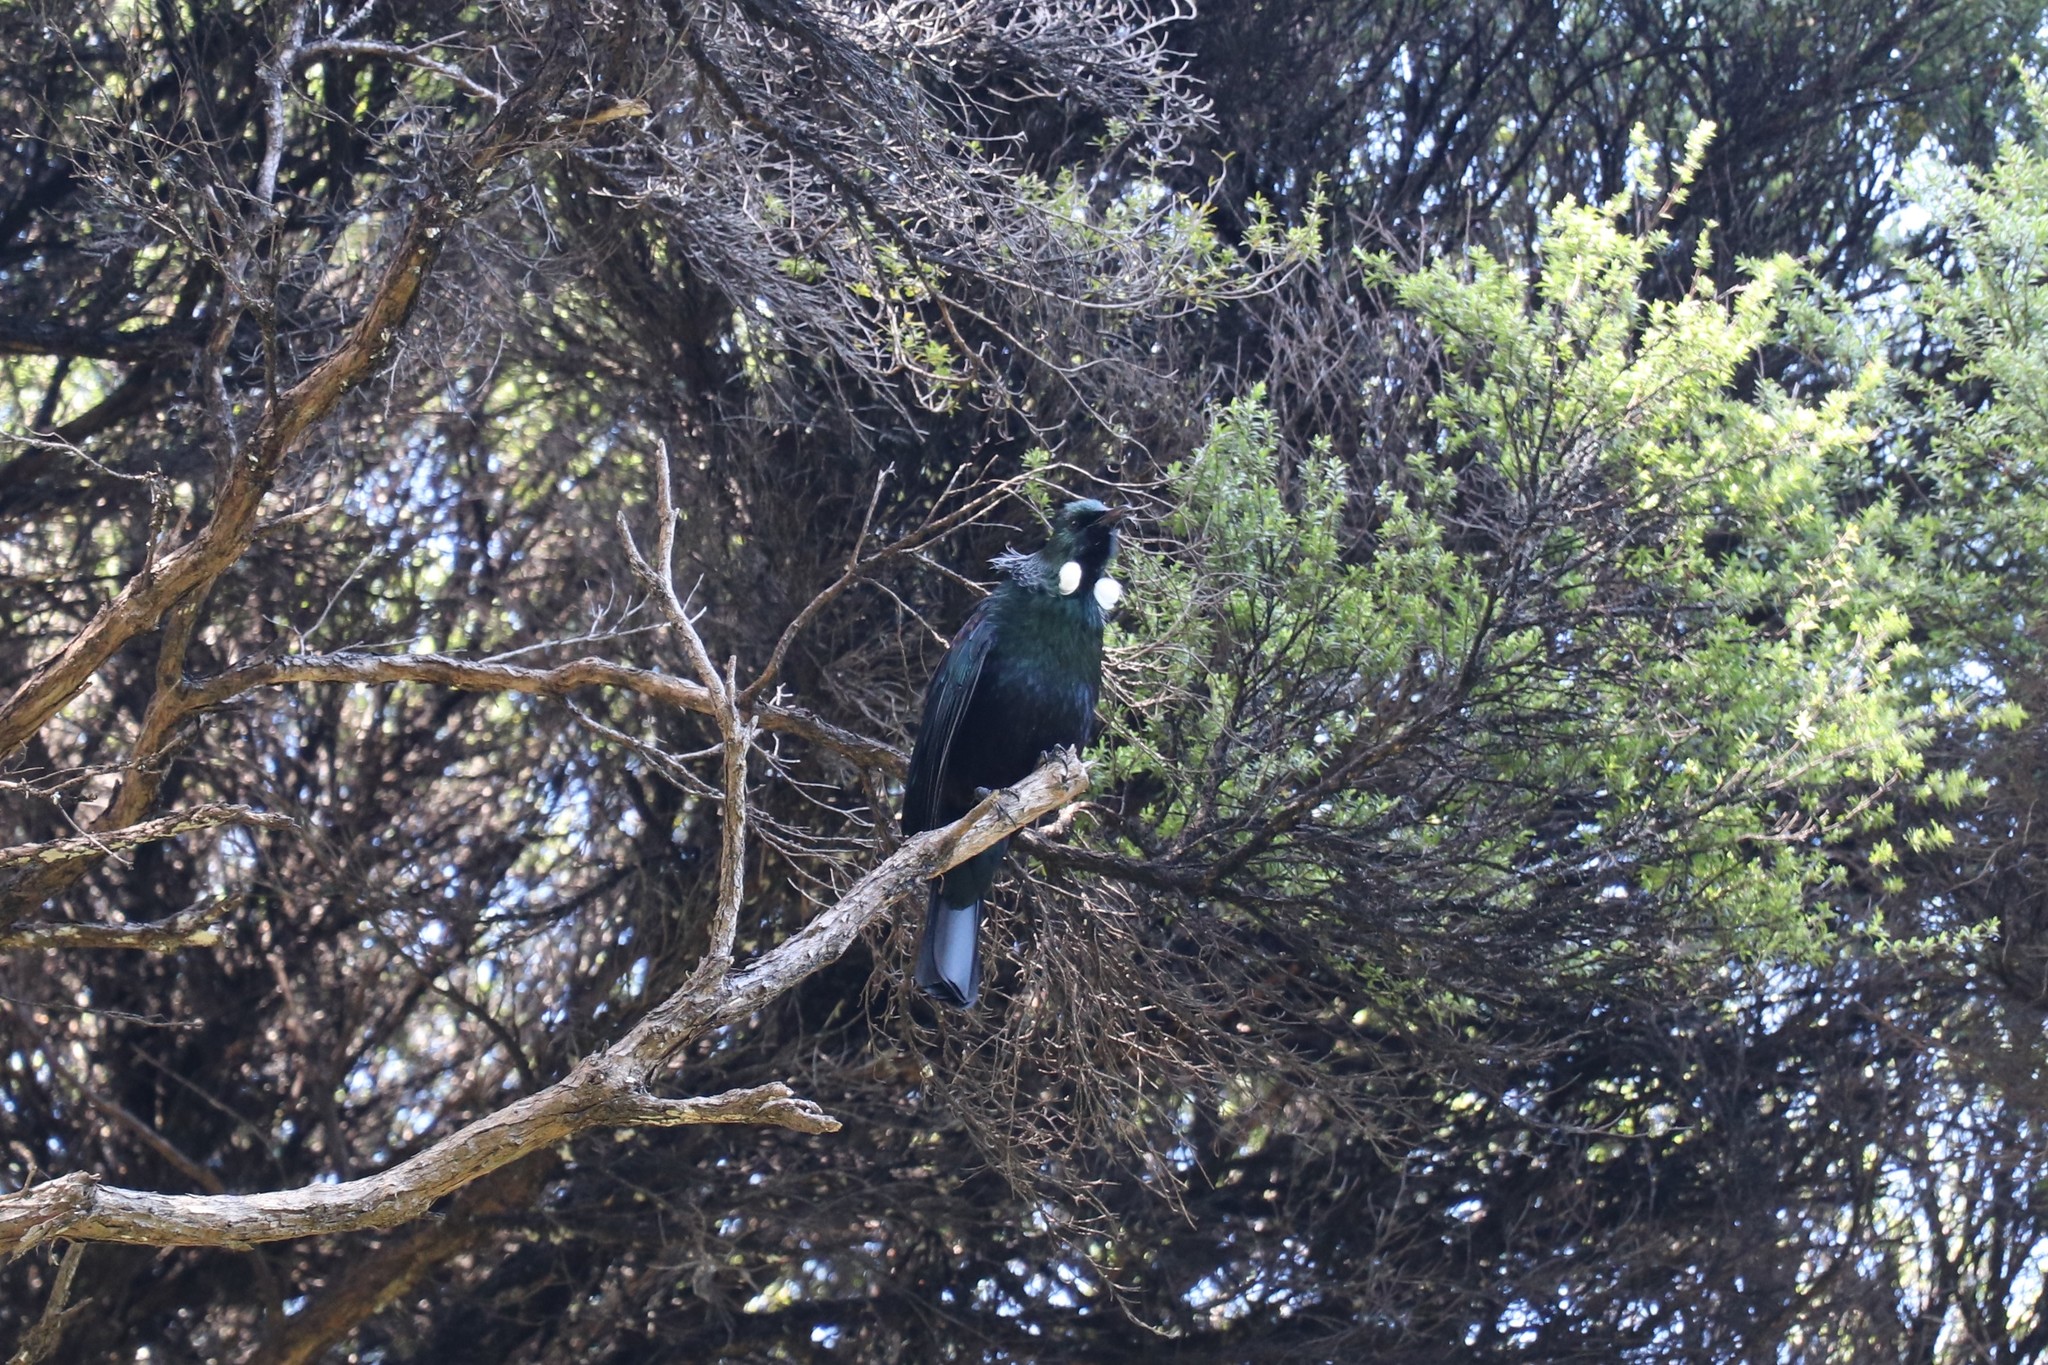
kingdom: Animalia
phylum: Chordata
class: Aves
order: Passeriformes
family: Meliphagidae
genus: Prosthemadera
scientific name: Prosthemadera novaeseelandiae
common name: Tui
